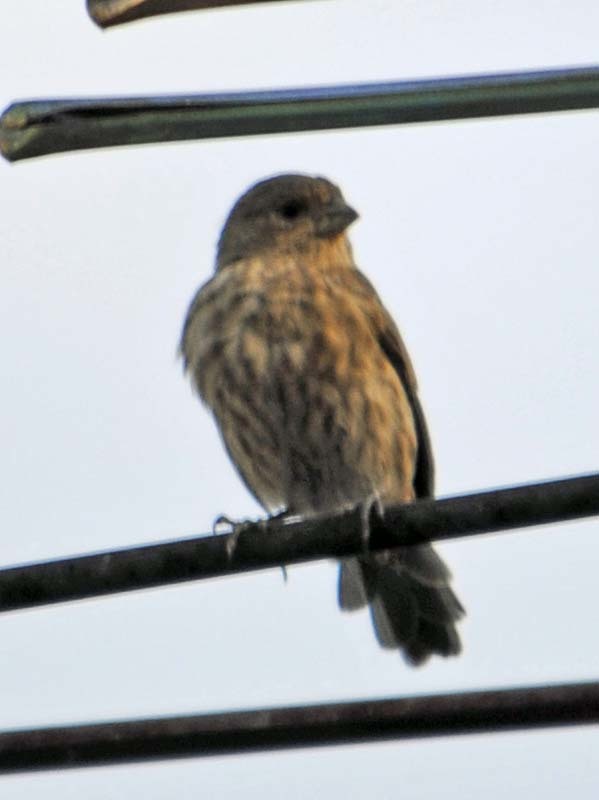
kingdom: Animalia
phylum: Chordata
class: Aves
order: Passeriformes
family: Fringillidae
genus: Haemorhous
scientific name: Haemorhous mexicanus
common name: House finch
